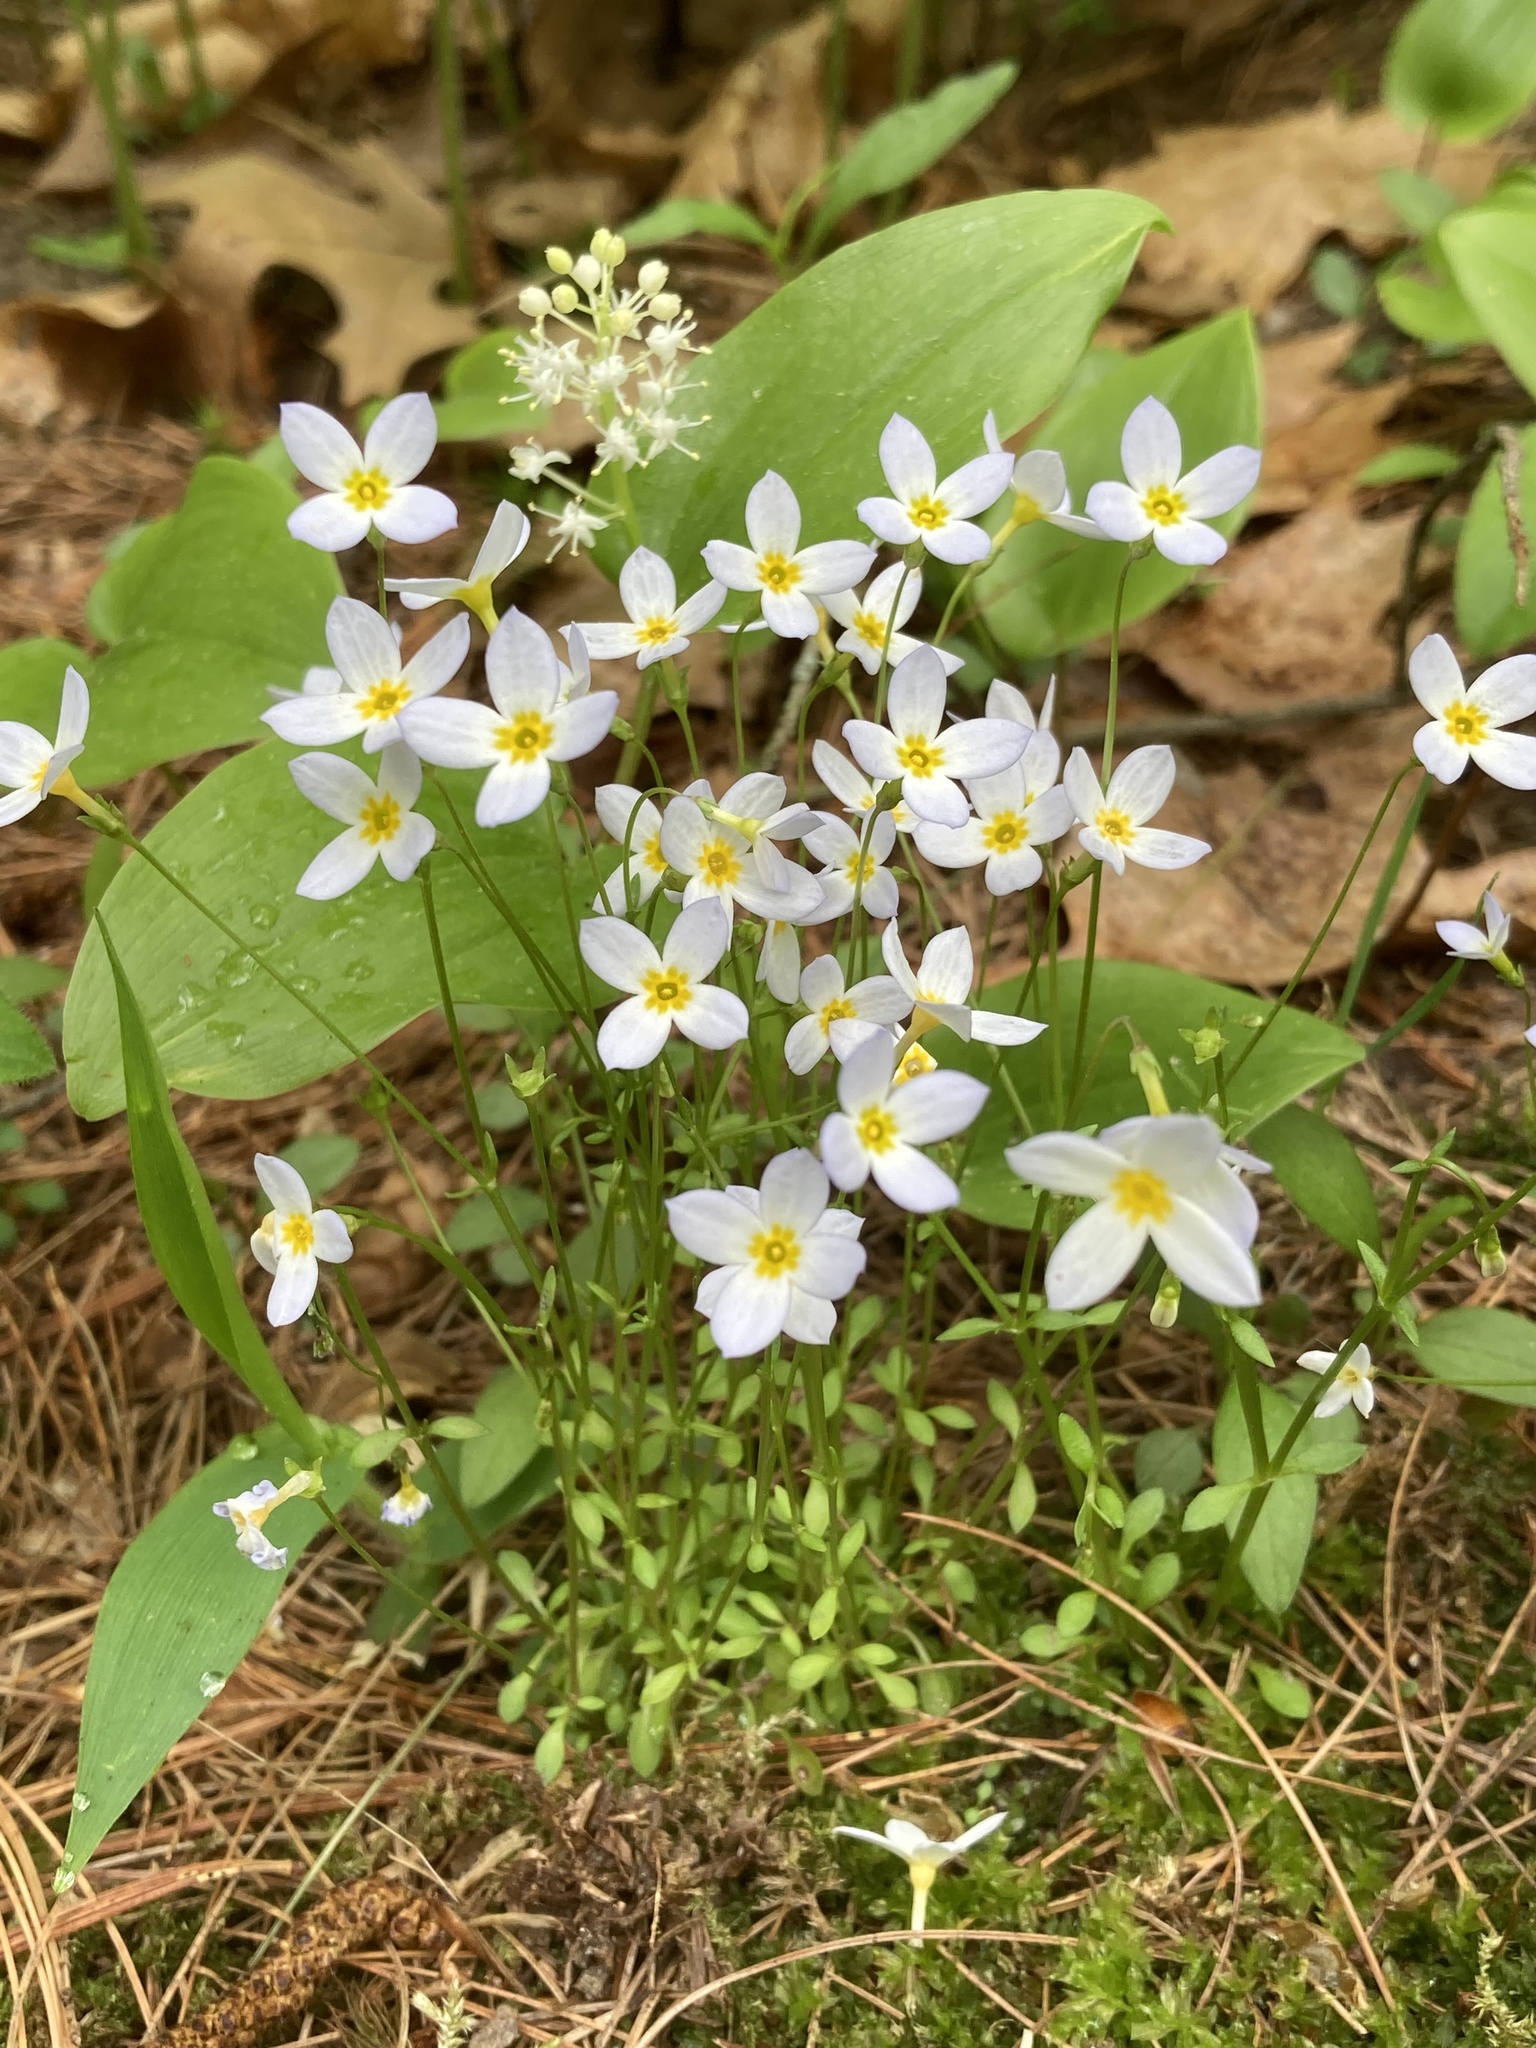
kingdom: Plantae
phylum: Tracheophyta
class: Magnoliopsida
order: Gentianales
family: Rubiaceae
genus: Houstonia
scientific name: Houstonia caerulea
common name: Bluets
